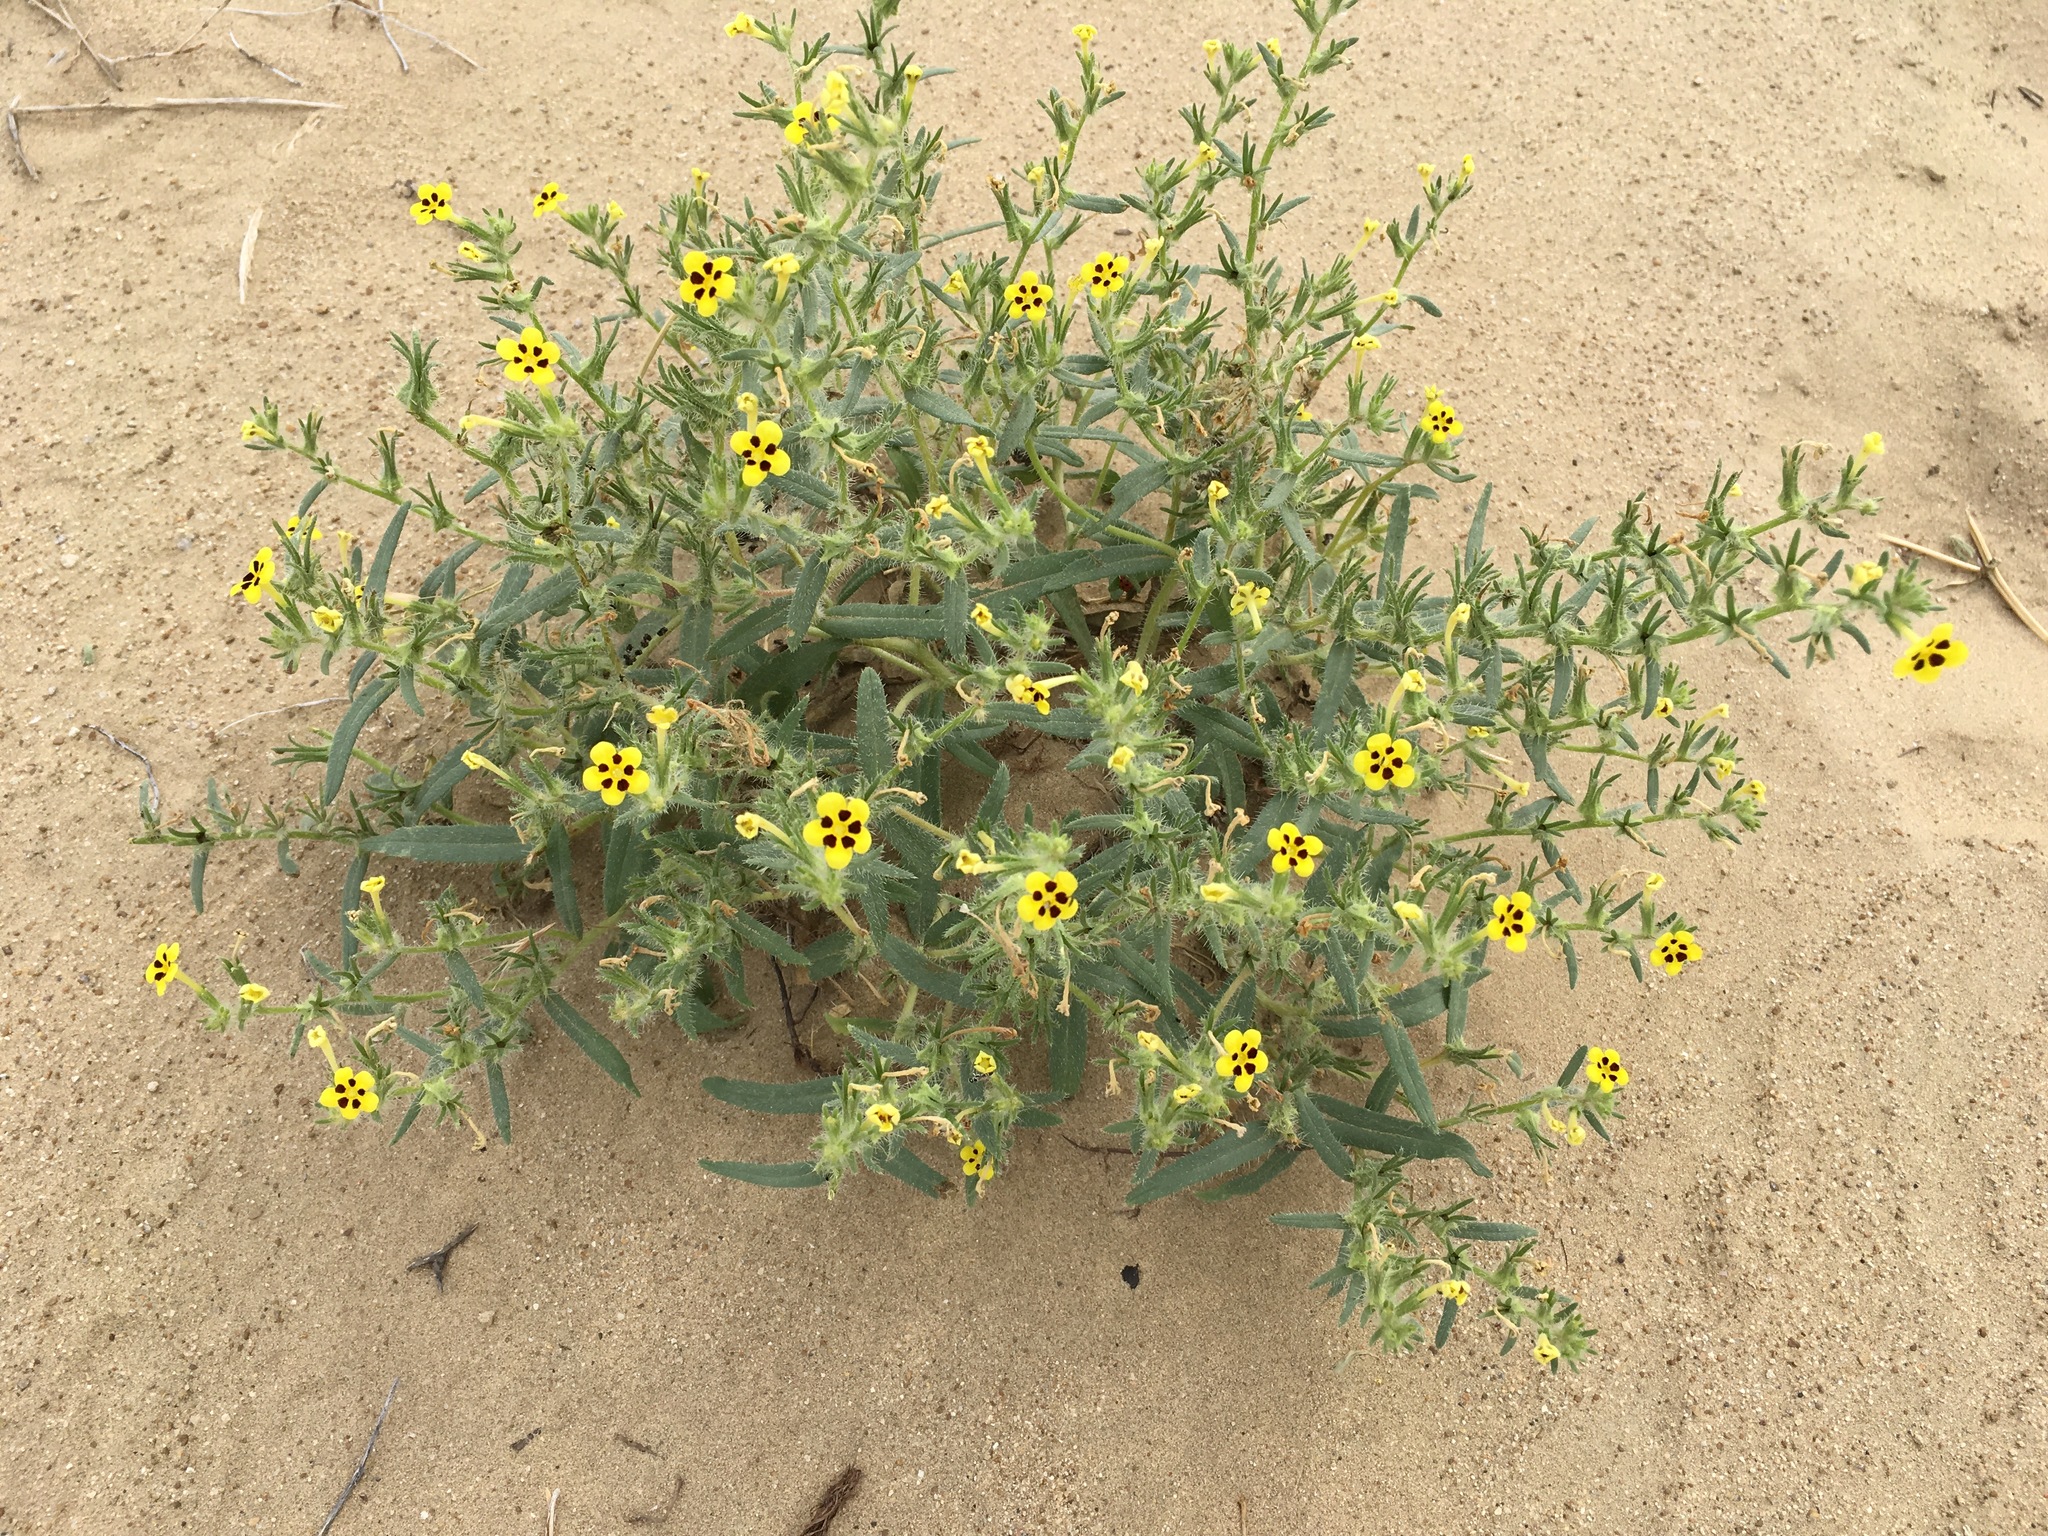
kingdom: Plantae
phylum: Tracheophyta
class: Magnoliopsida
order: Boraginales
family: Boraginaceae
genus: Arnebia
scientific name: Arnebia coerulea
